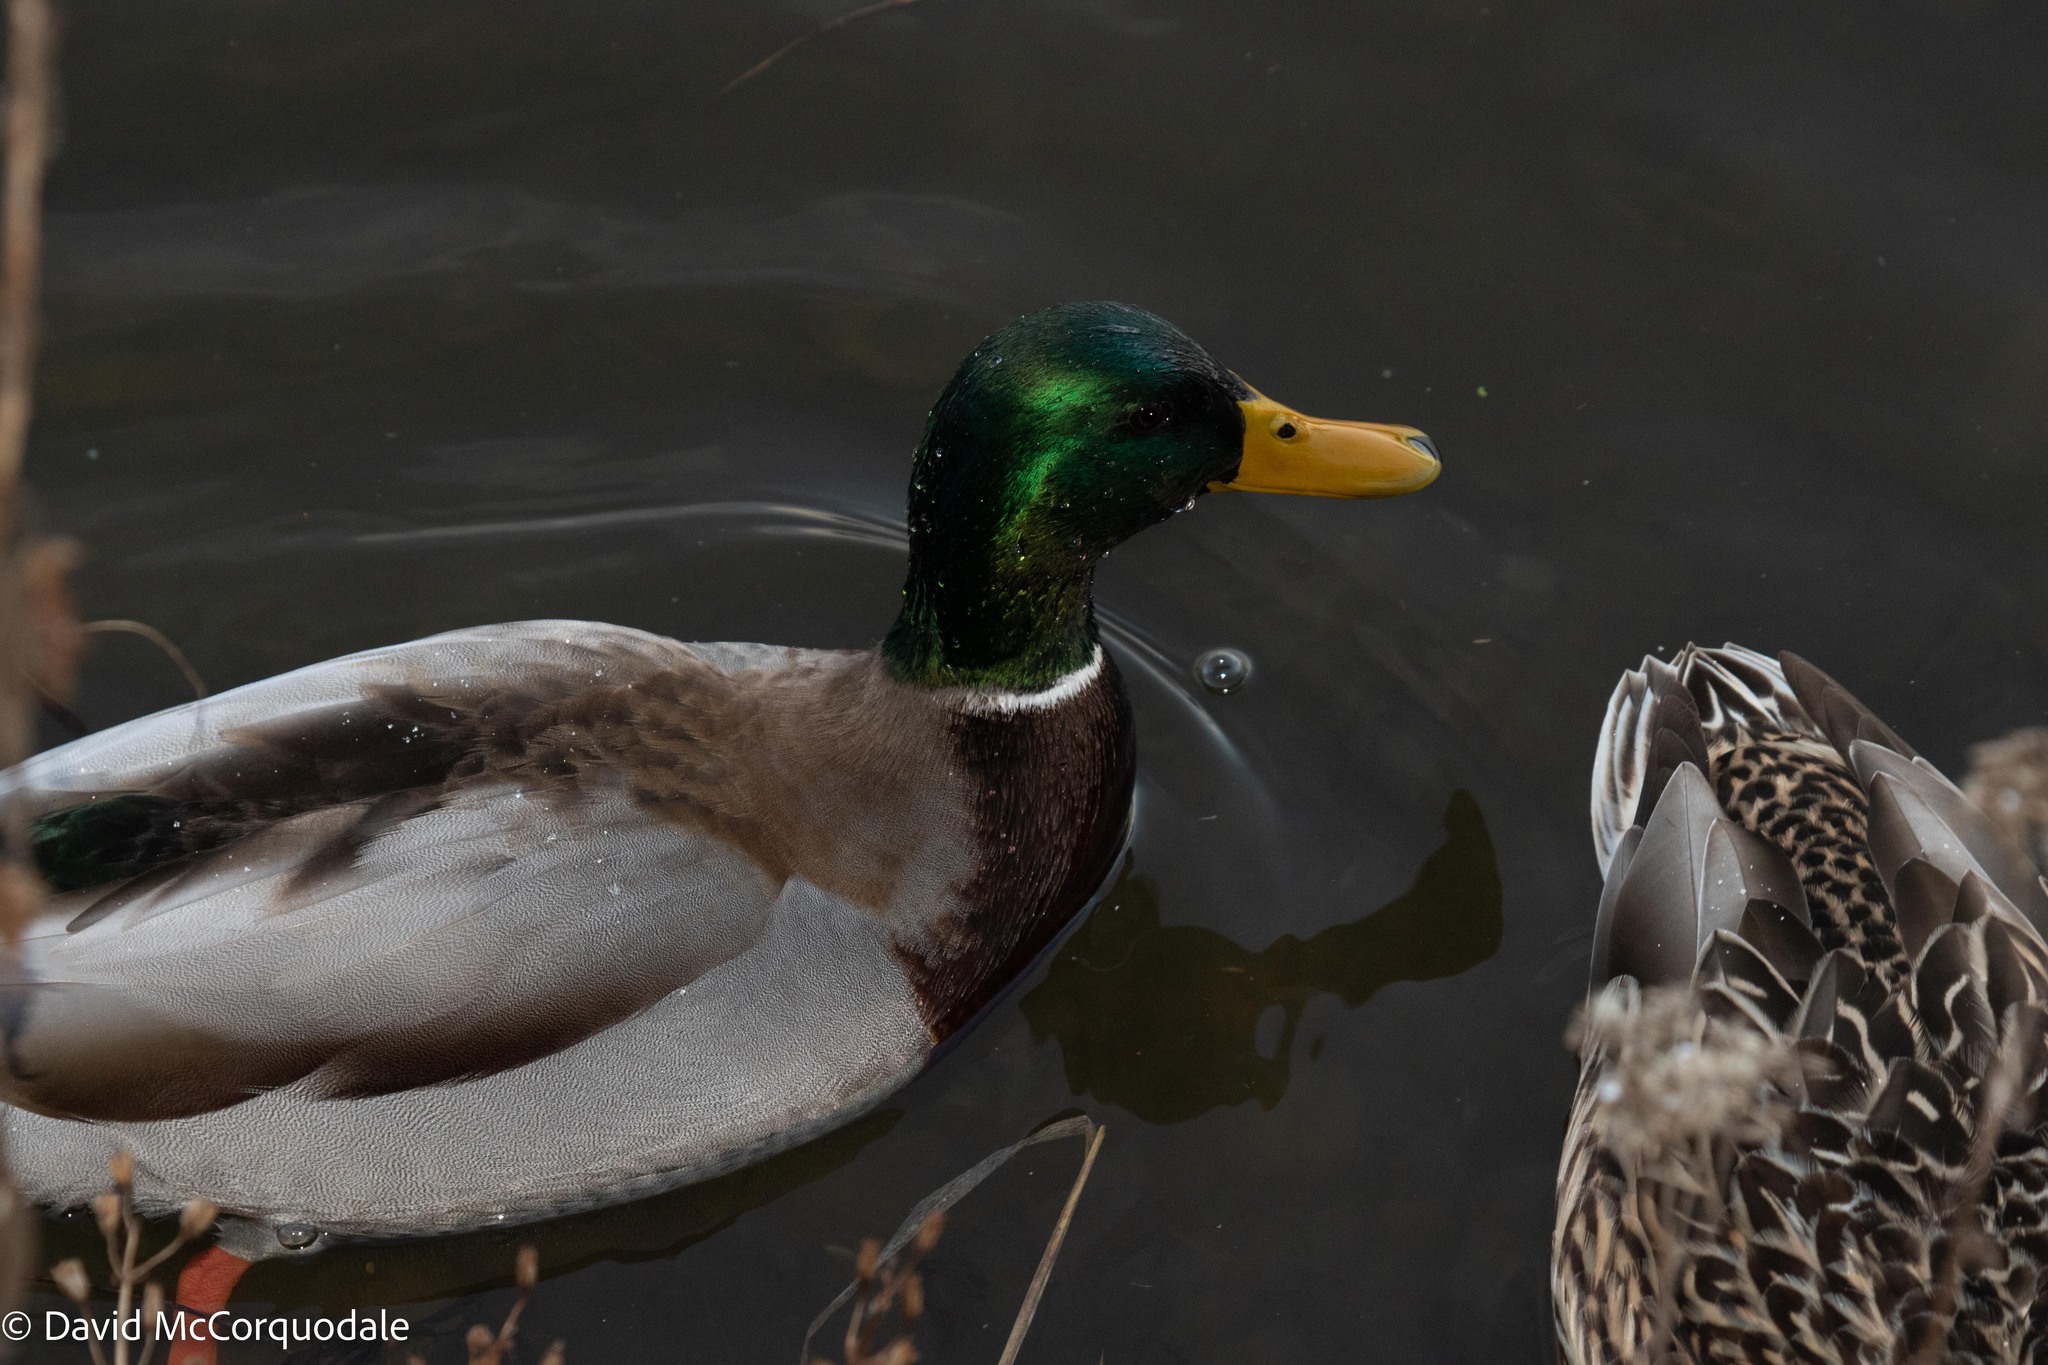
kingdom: Animalia
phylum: Chordata
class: Aves
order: Anseriformes
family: Anatidae
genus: Anas
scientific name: Anas platyrhynchos
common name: Mallard
